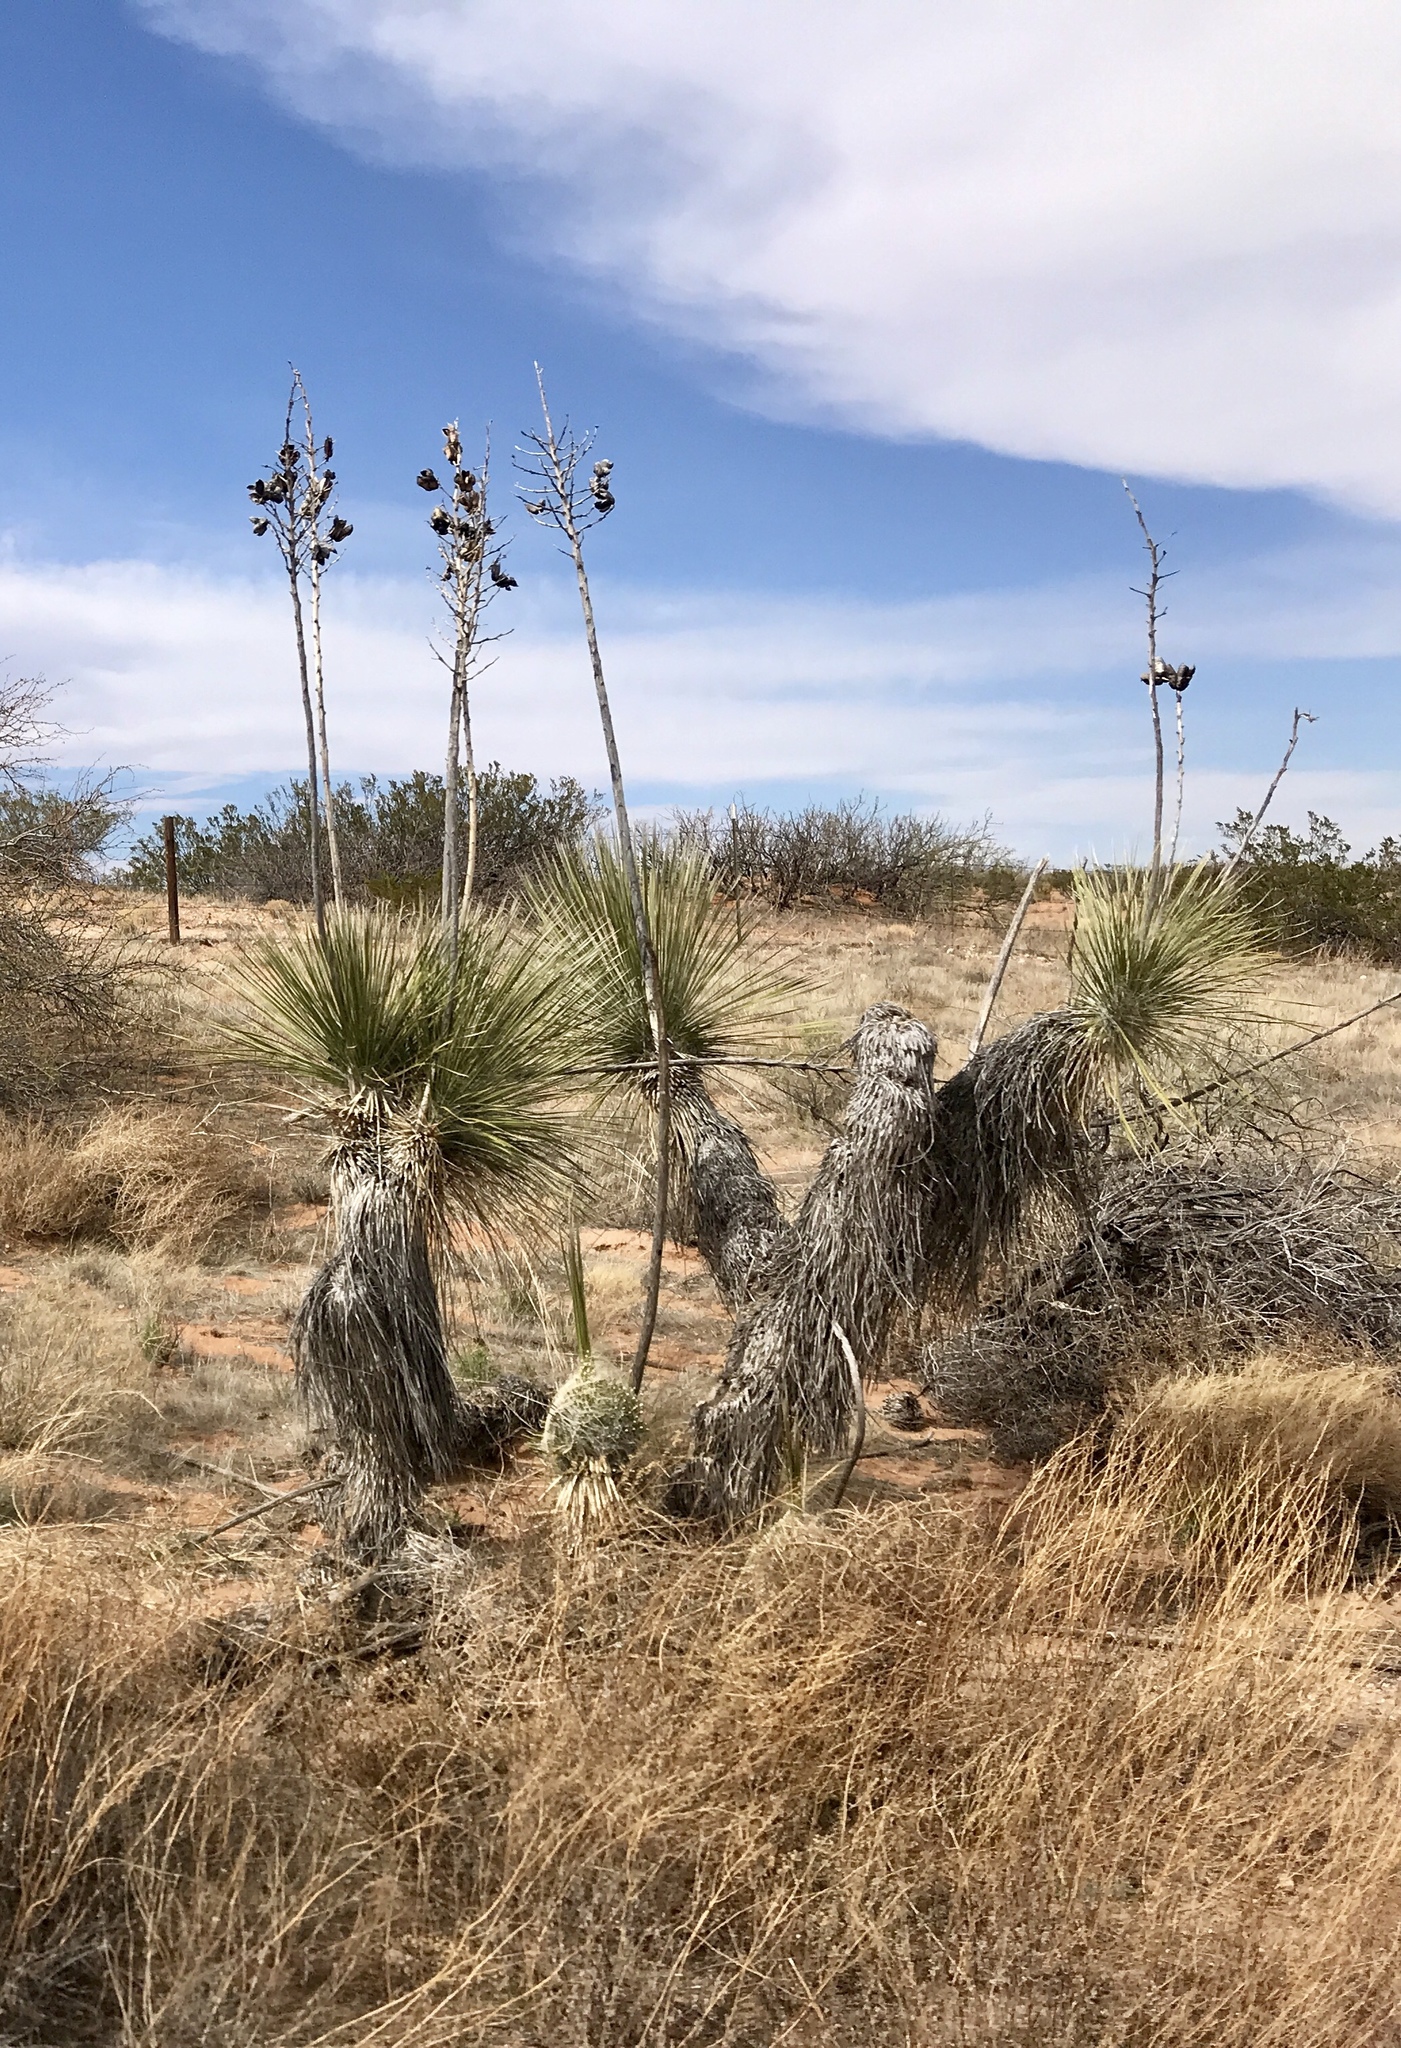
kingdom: Plantae
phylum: Tracheophyta
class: Liliopsida
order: Asparagales
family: Asparagaceae
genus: Yucca
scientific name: Yucca elata
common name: Palmella
